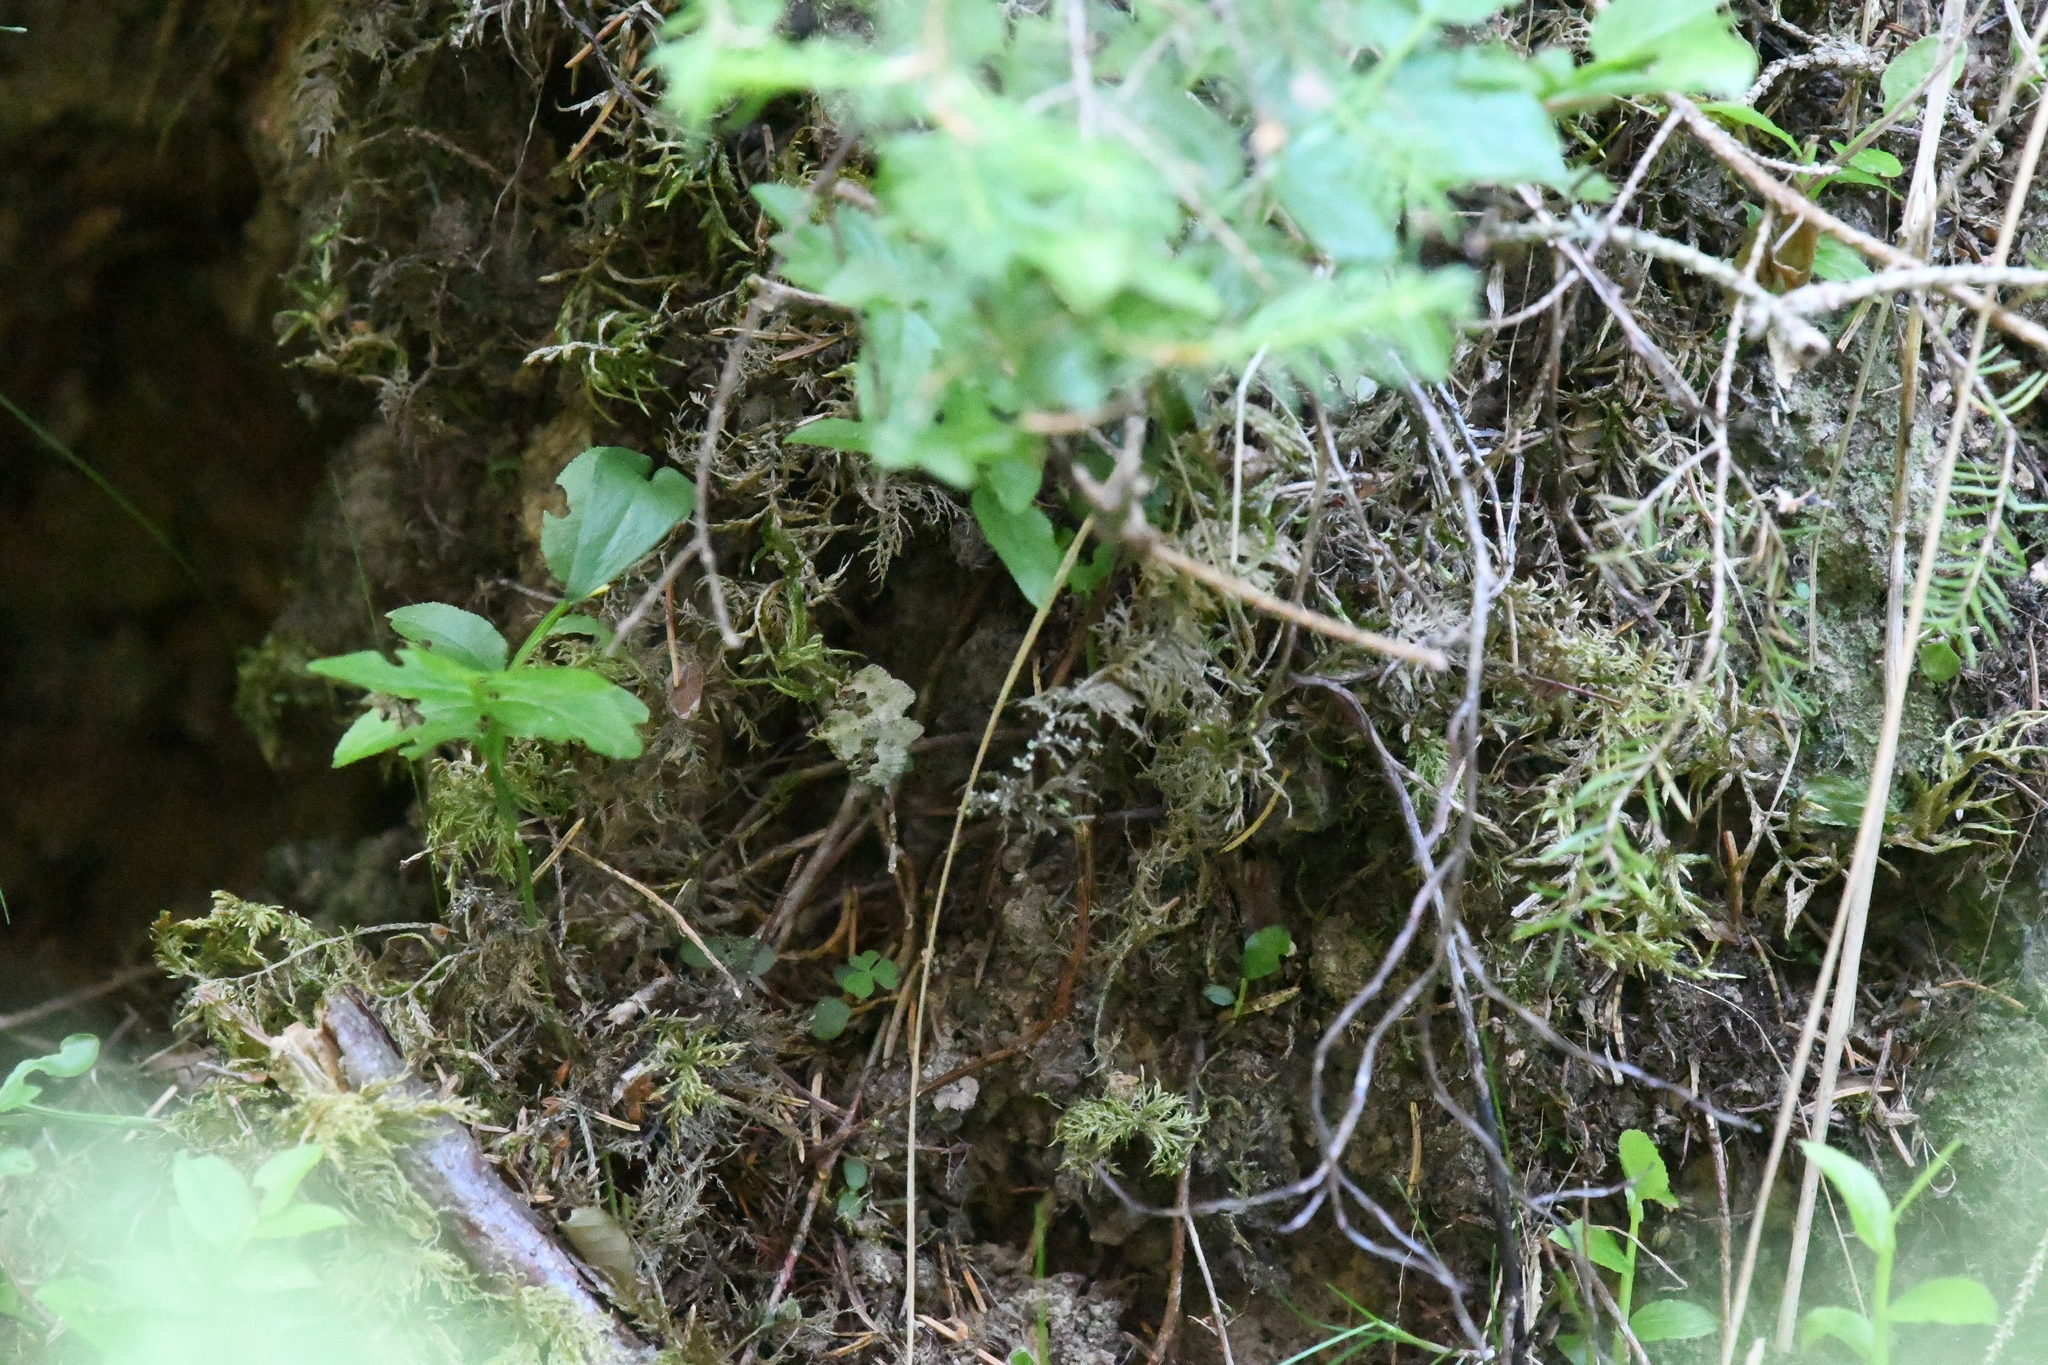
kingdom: Animalia
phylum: Arthropoda
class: Insecta
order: Lepidoptera
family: Geometridae
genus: Xanthorhoe
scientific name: Xanthorhoe montanata
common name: Silver-ground carpet
